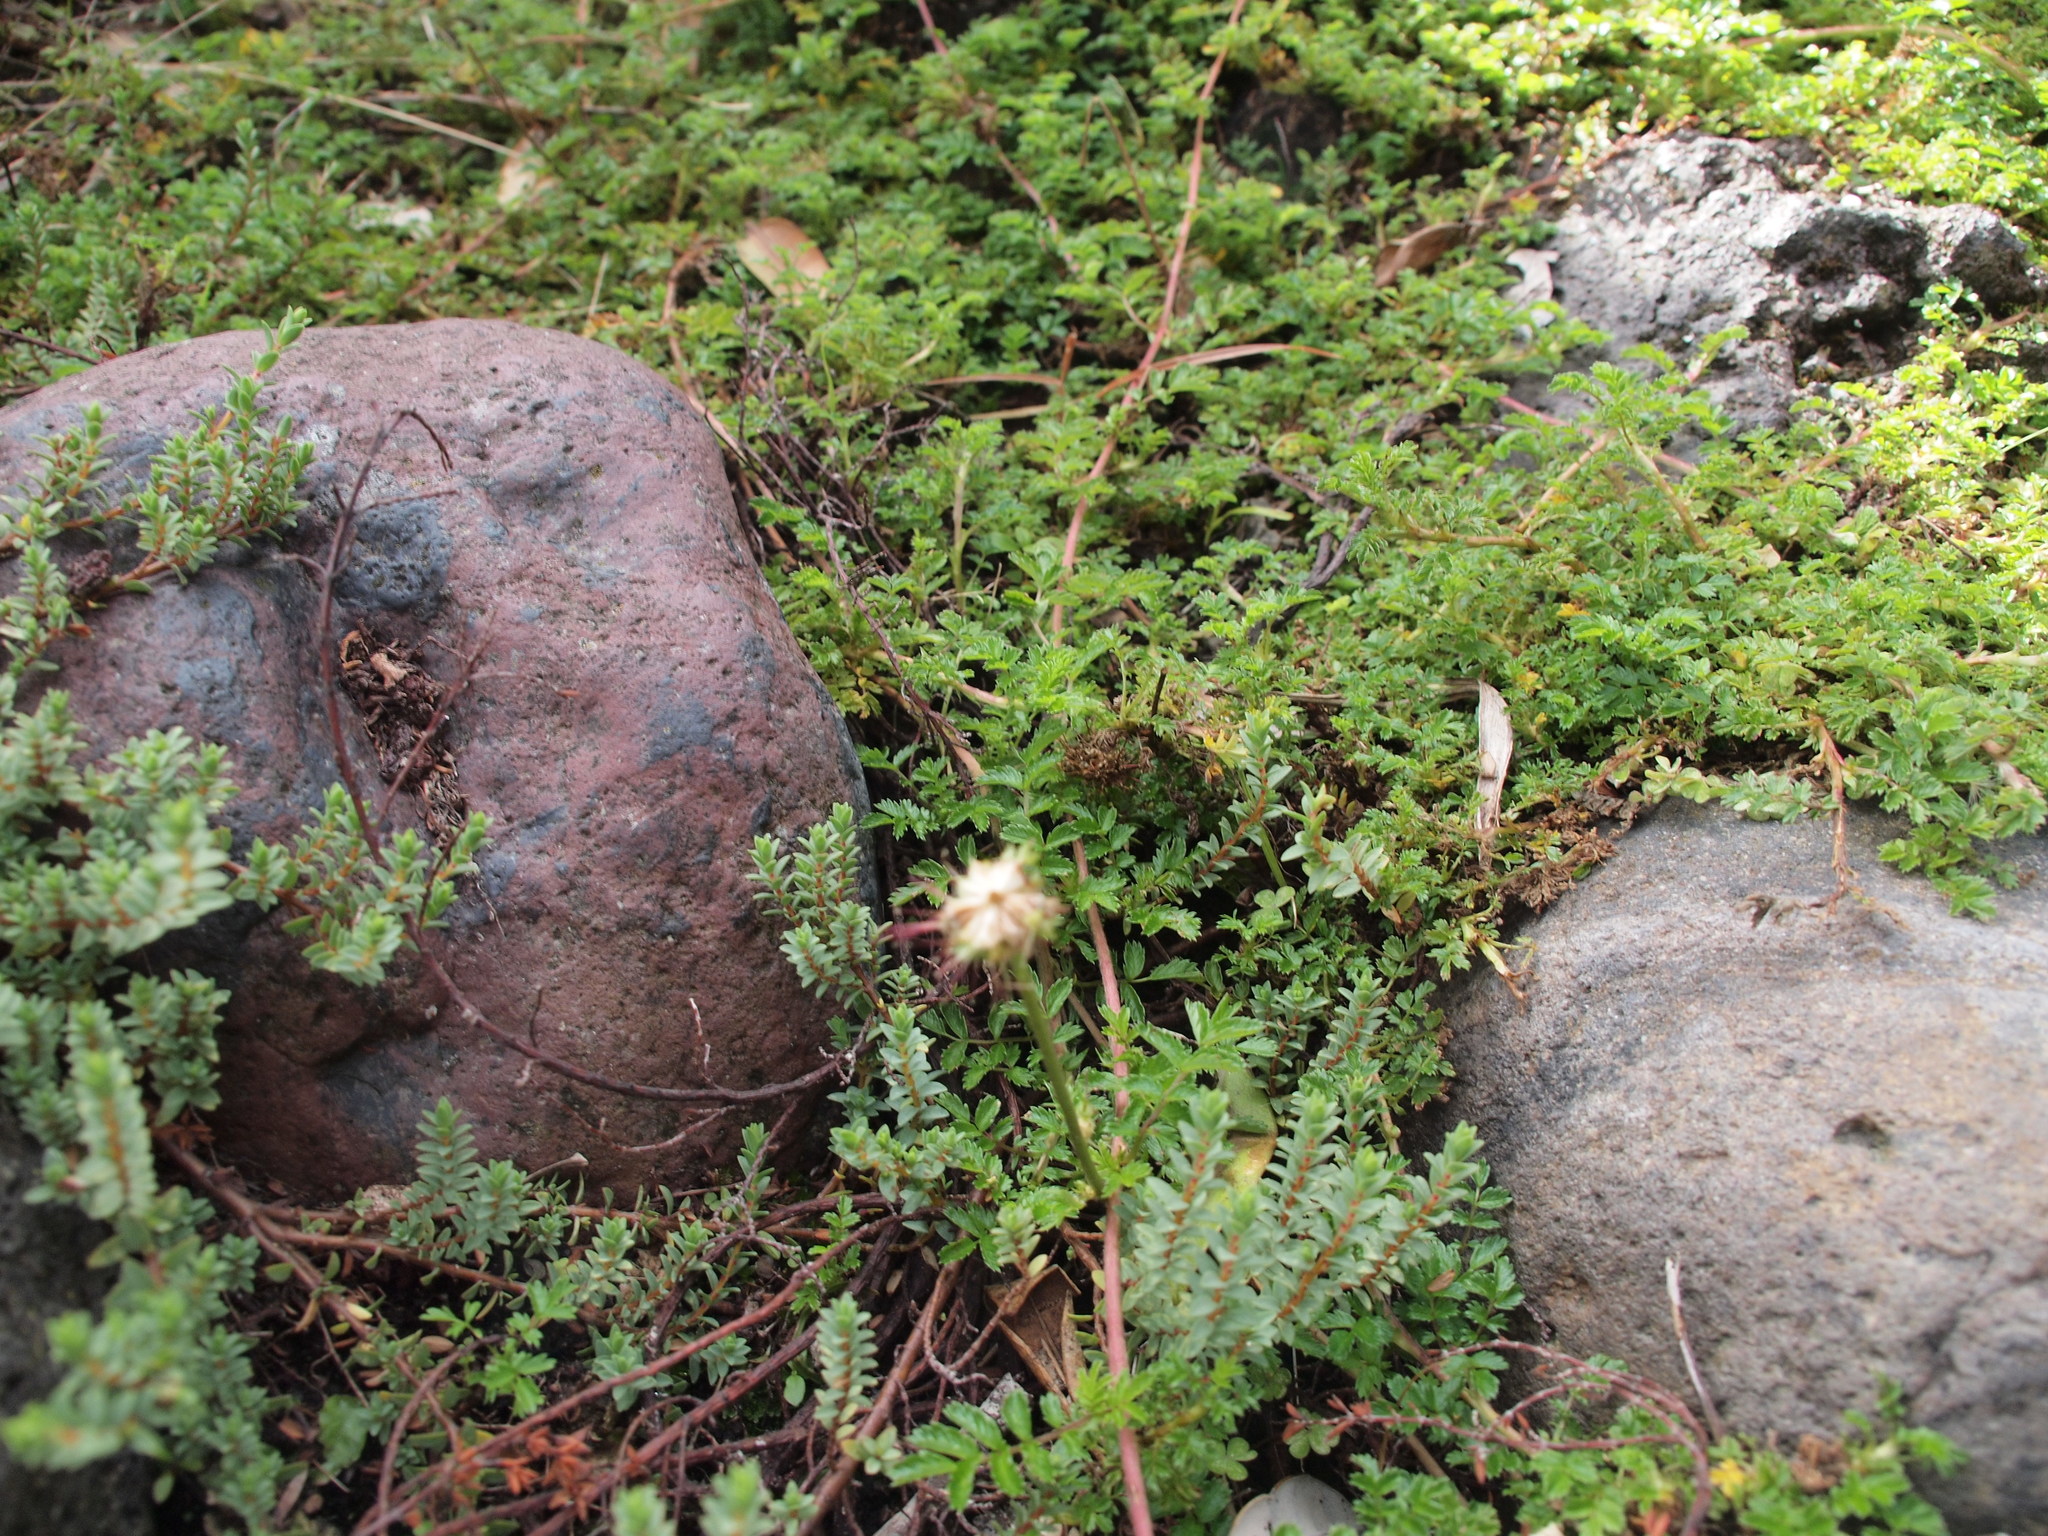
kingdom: Plantae
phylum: Tracheophyta
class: Magnoliopsida
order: Rosales
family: Rosaceae
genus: Acaena
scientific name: Acaena novae-zelandiae
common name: Pirri-pirri-bur
